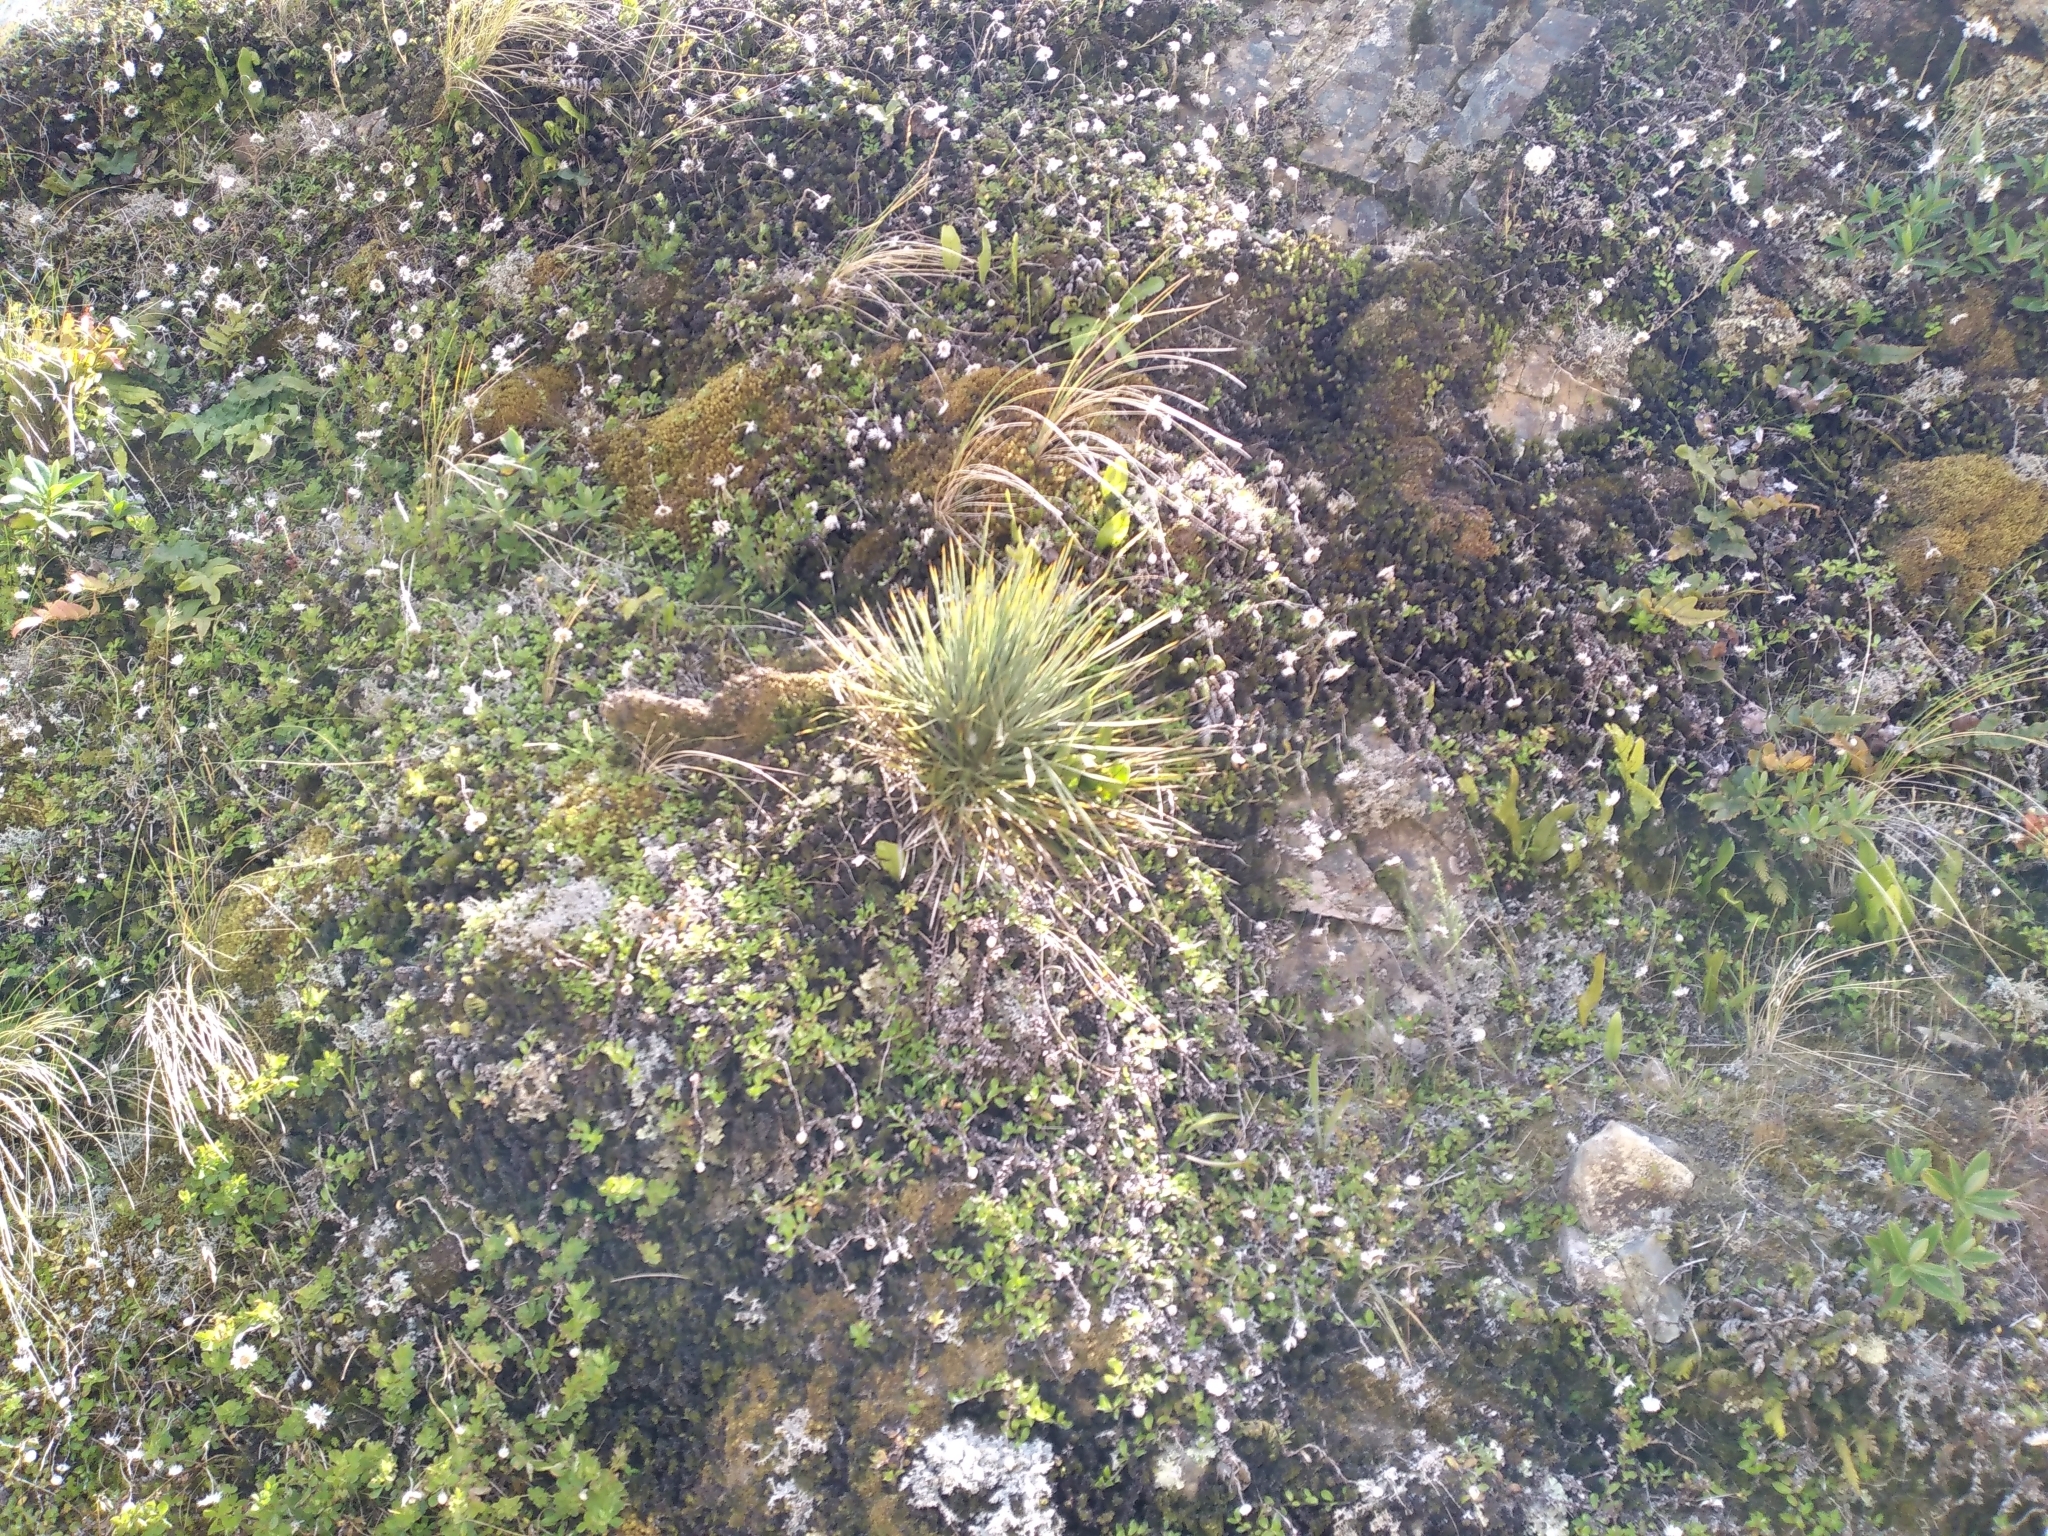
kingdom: Plantae
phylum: Tracheophyta
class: Magnoliopsida
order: Apiales
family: Apiaceae
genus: Aciphylla
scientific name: Aciphylla squarrosa
